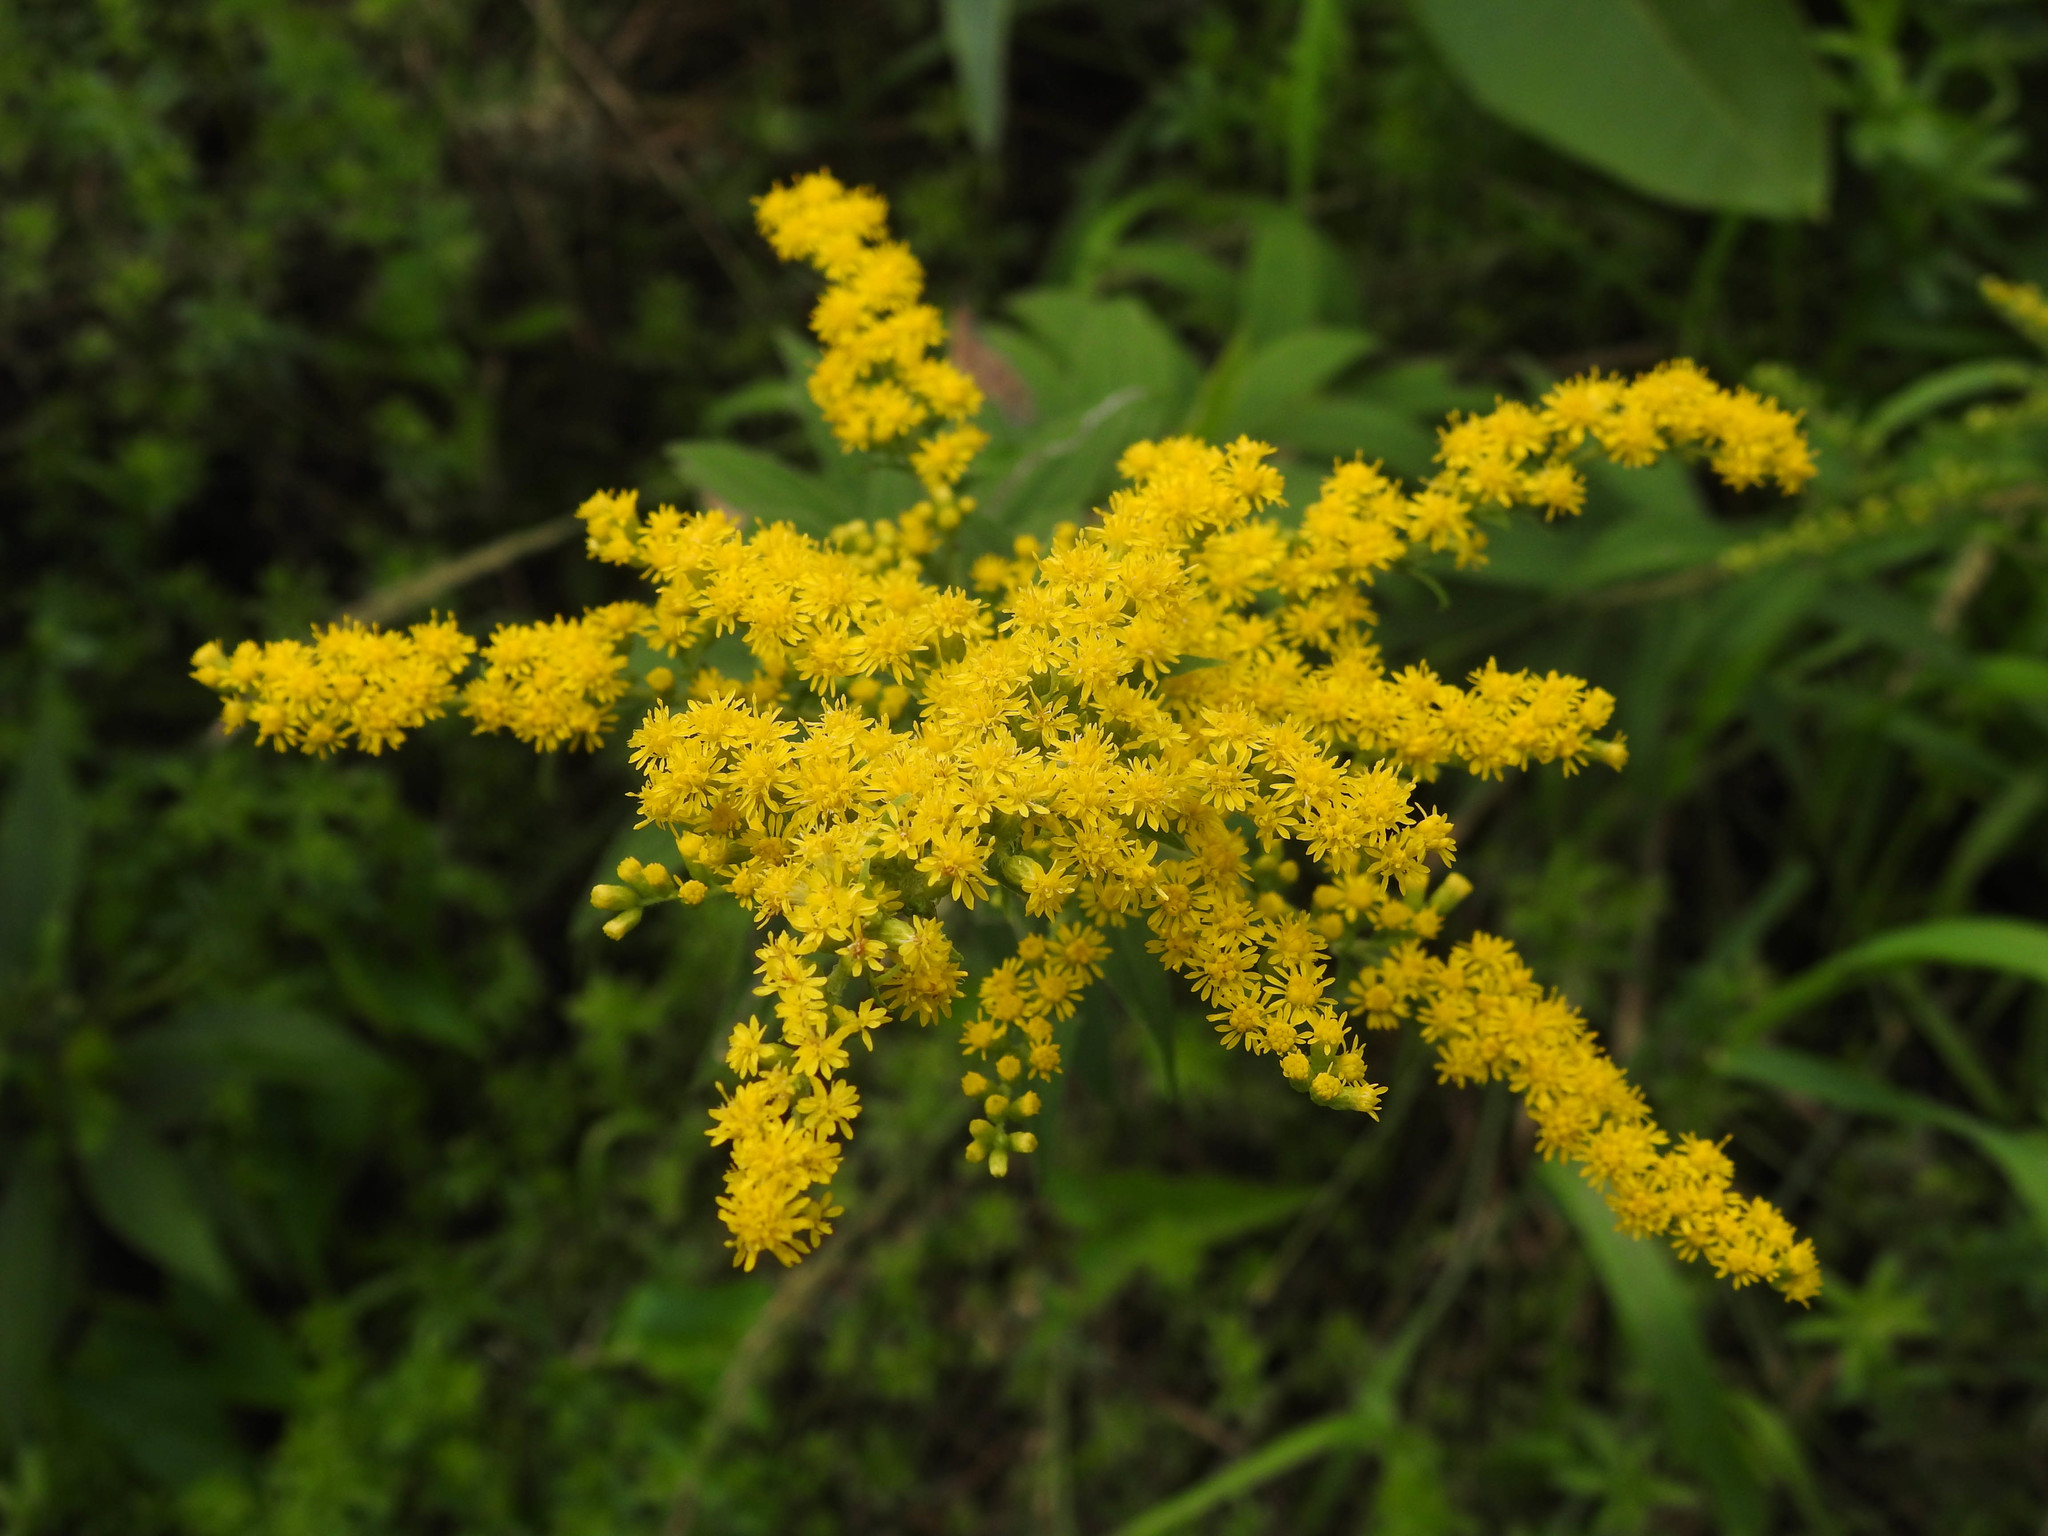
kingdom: Plantae
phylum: Tracheophyta
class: Magnoliopsida
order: Asterales
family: Asteraceae
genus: Solidago
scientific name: Solidago juncea
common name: Early goldenrod
